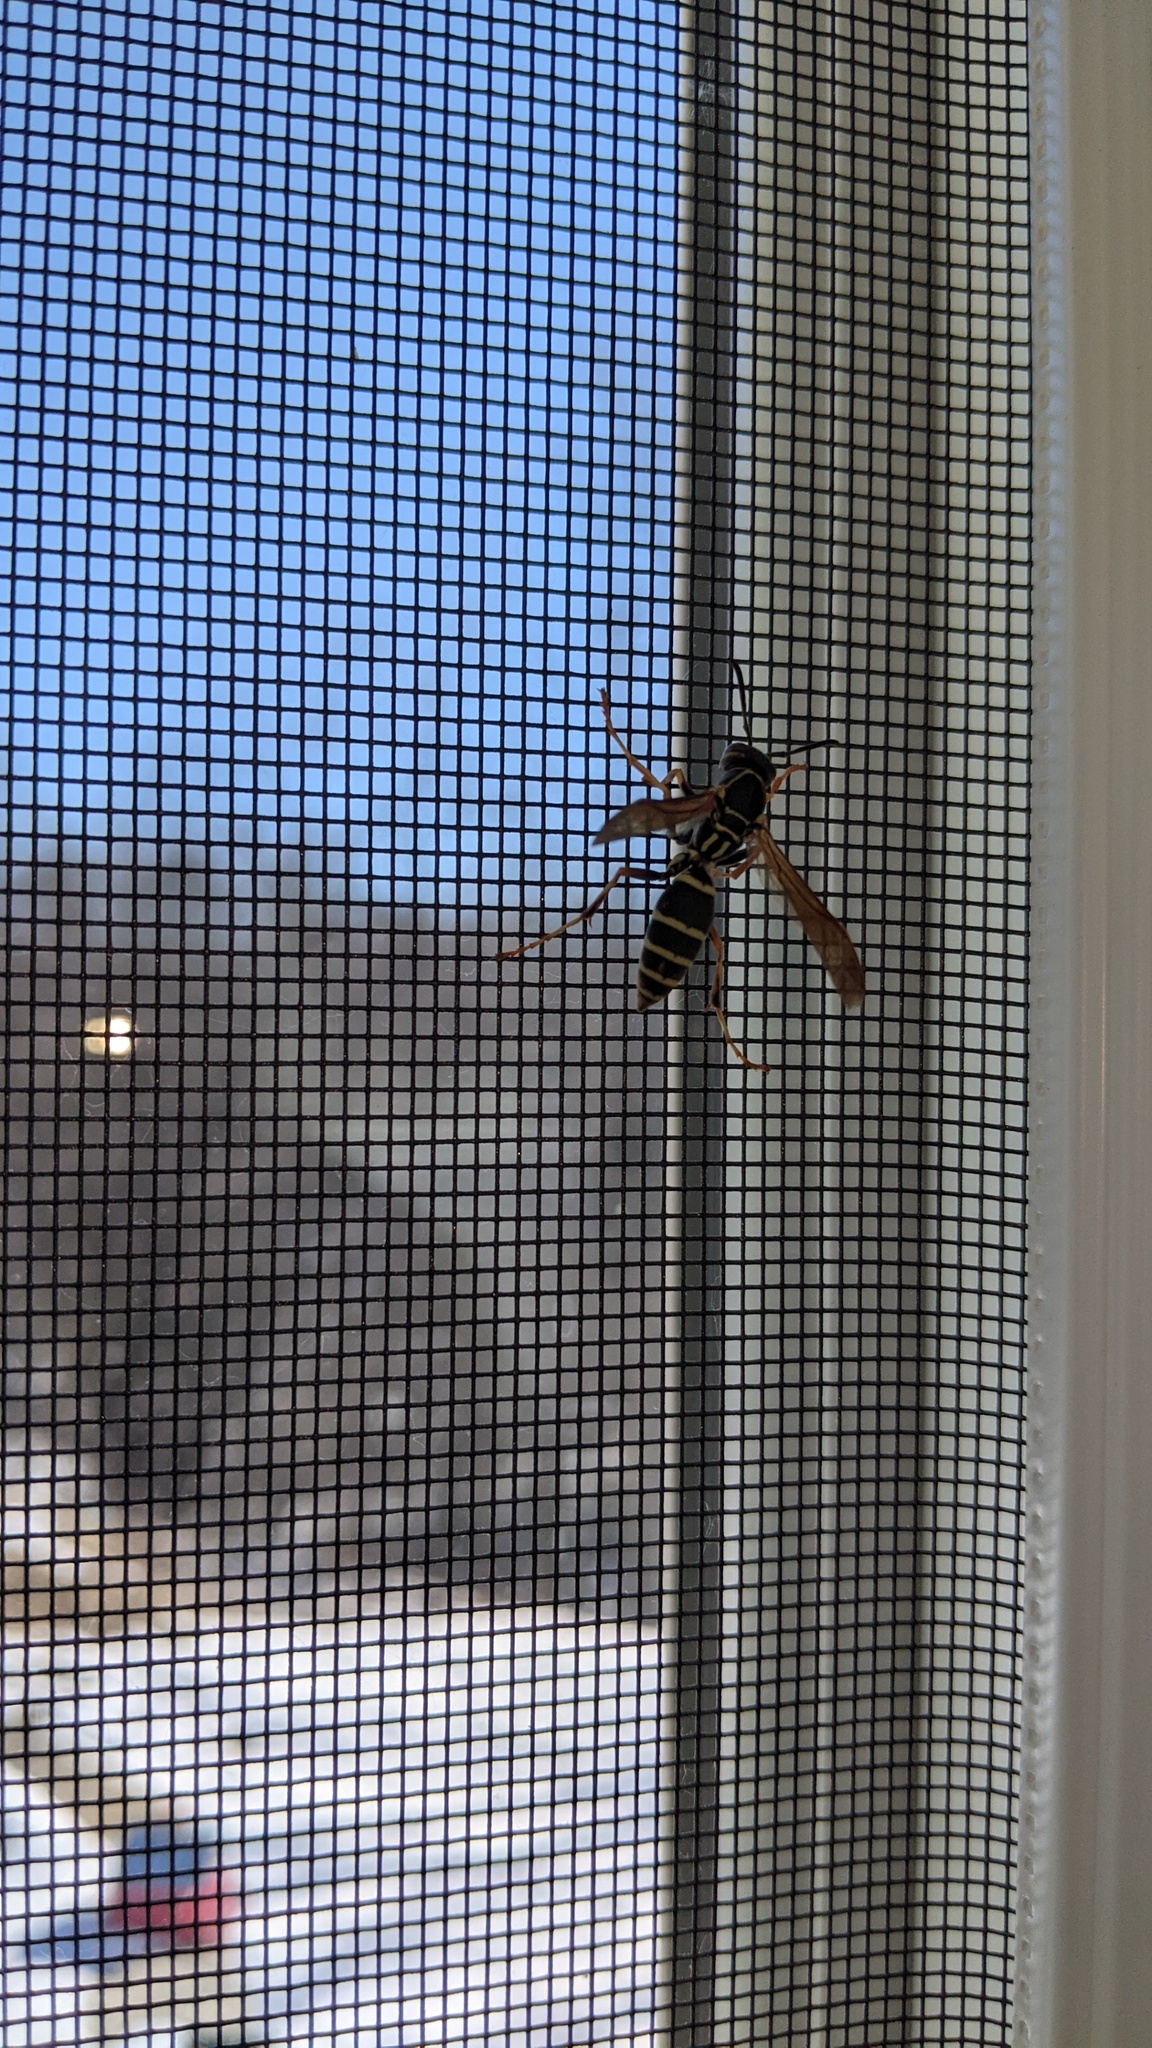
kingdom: Animalia
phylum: Arthropoda
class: Insecta
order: Hymenoptera
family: Eumenidae
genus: Polistes
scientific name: Polistes fuscatus
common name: Dark paper wasp
